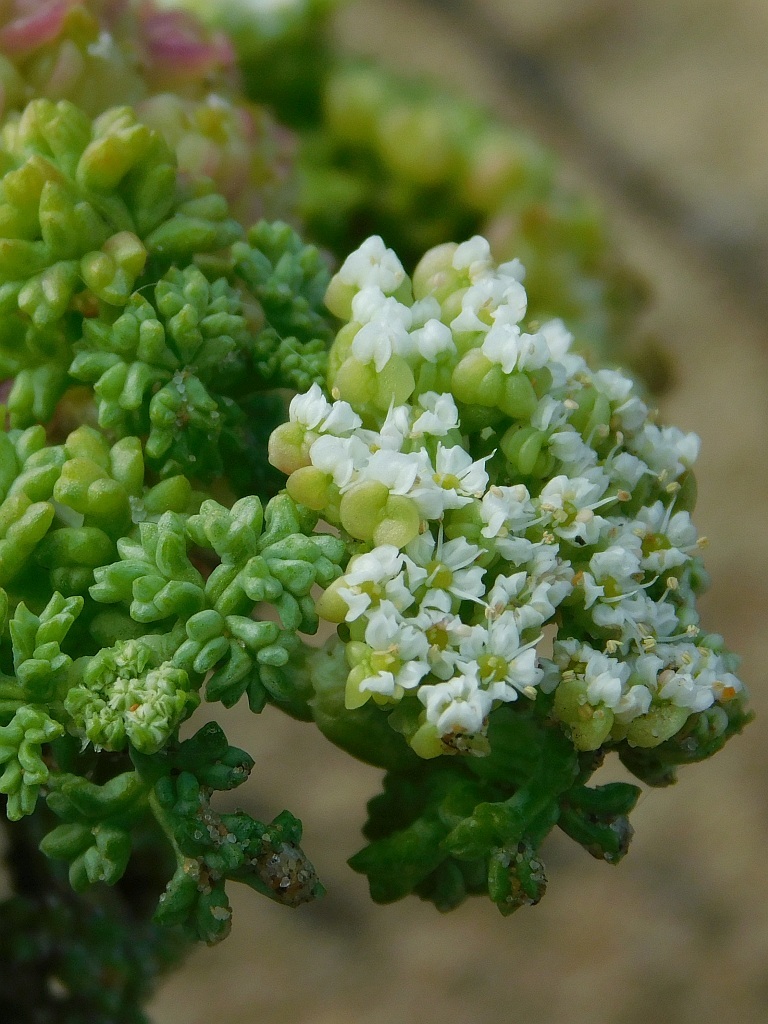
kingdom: Plantae
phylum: Tracheophyta
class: Magnoliopsida
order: Apiales
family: Apiaceae
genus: Dasispermum
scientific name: Dasispermum suffruticosum
